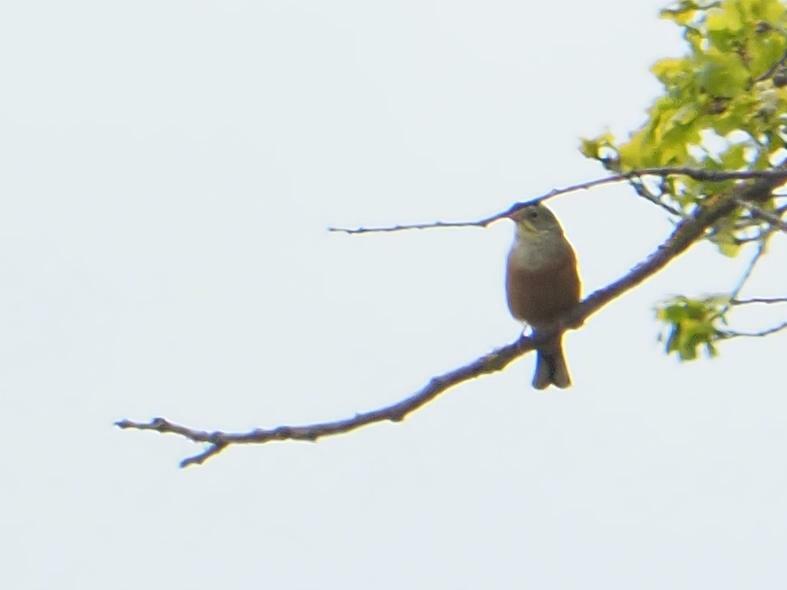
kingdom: Animalia
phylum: Chordata
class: Aves
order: Passeriformes
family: Emberizidae
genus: Emberiza
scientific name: Emberiza hortulana
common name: Ortolan bunting
